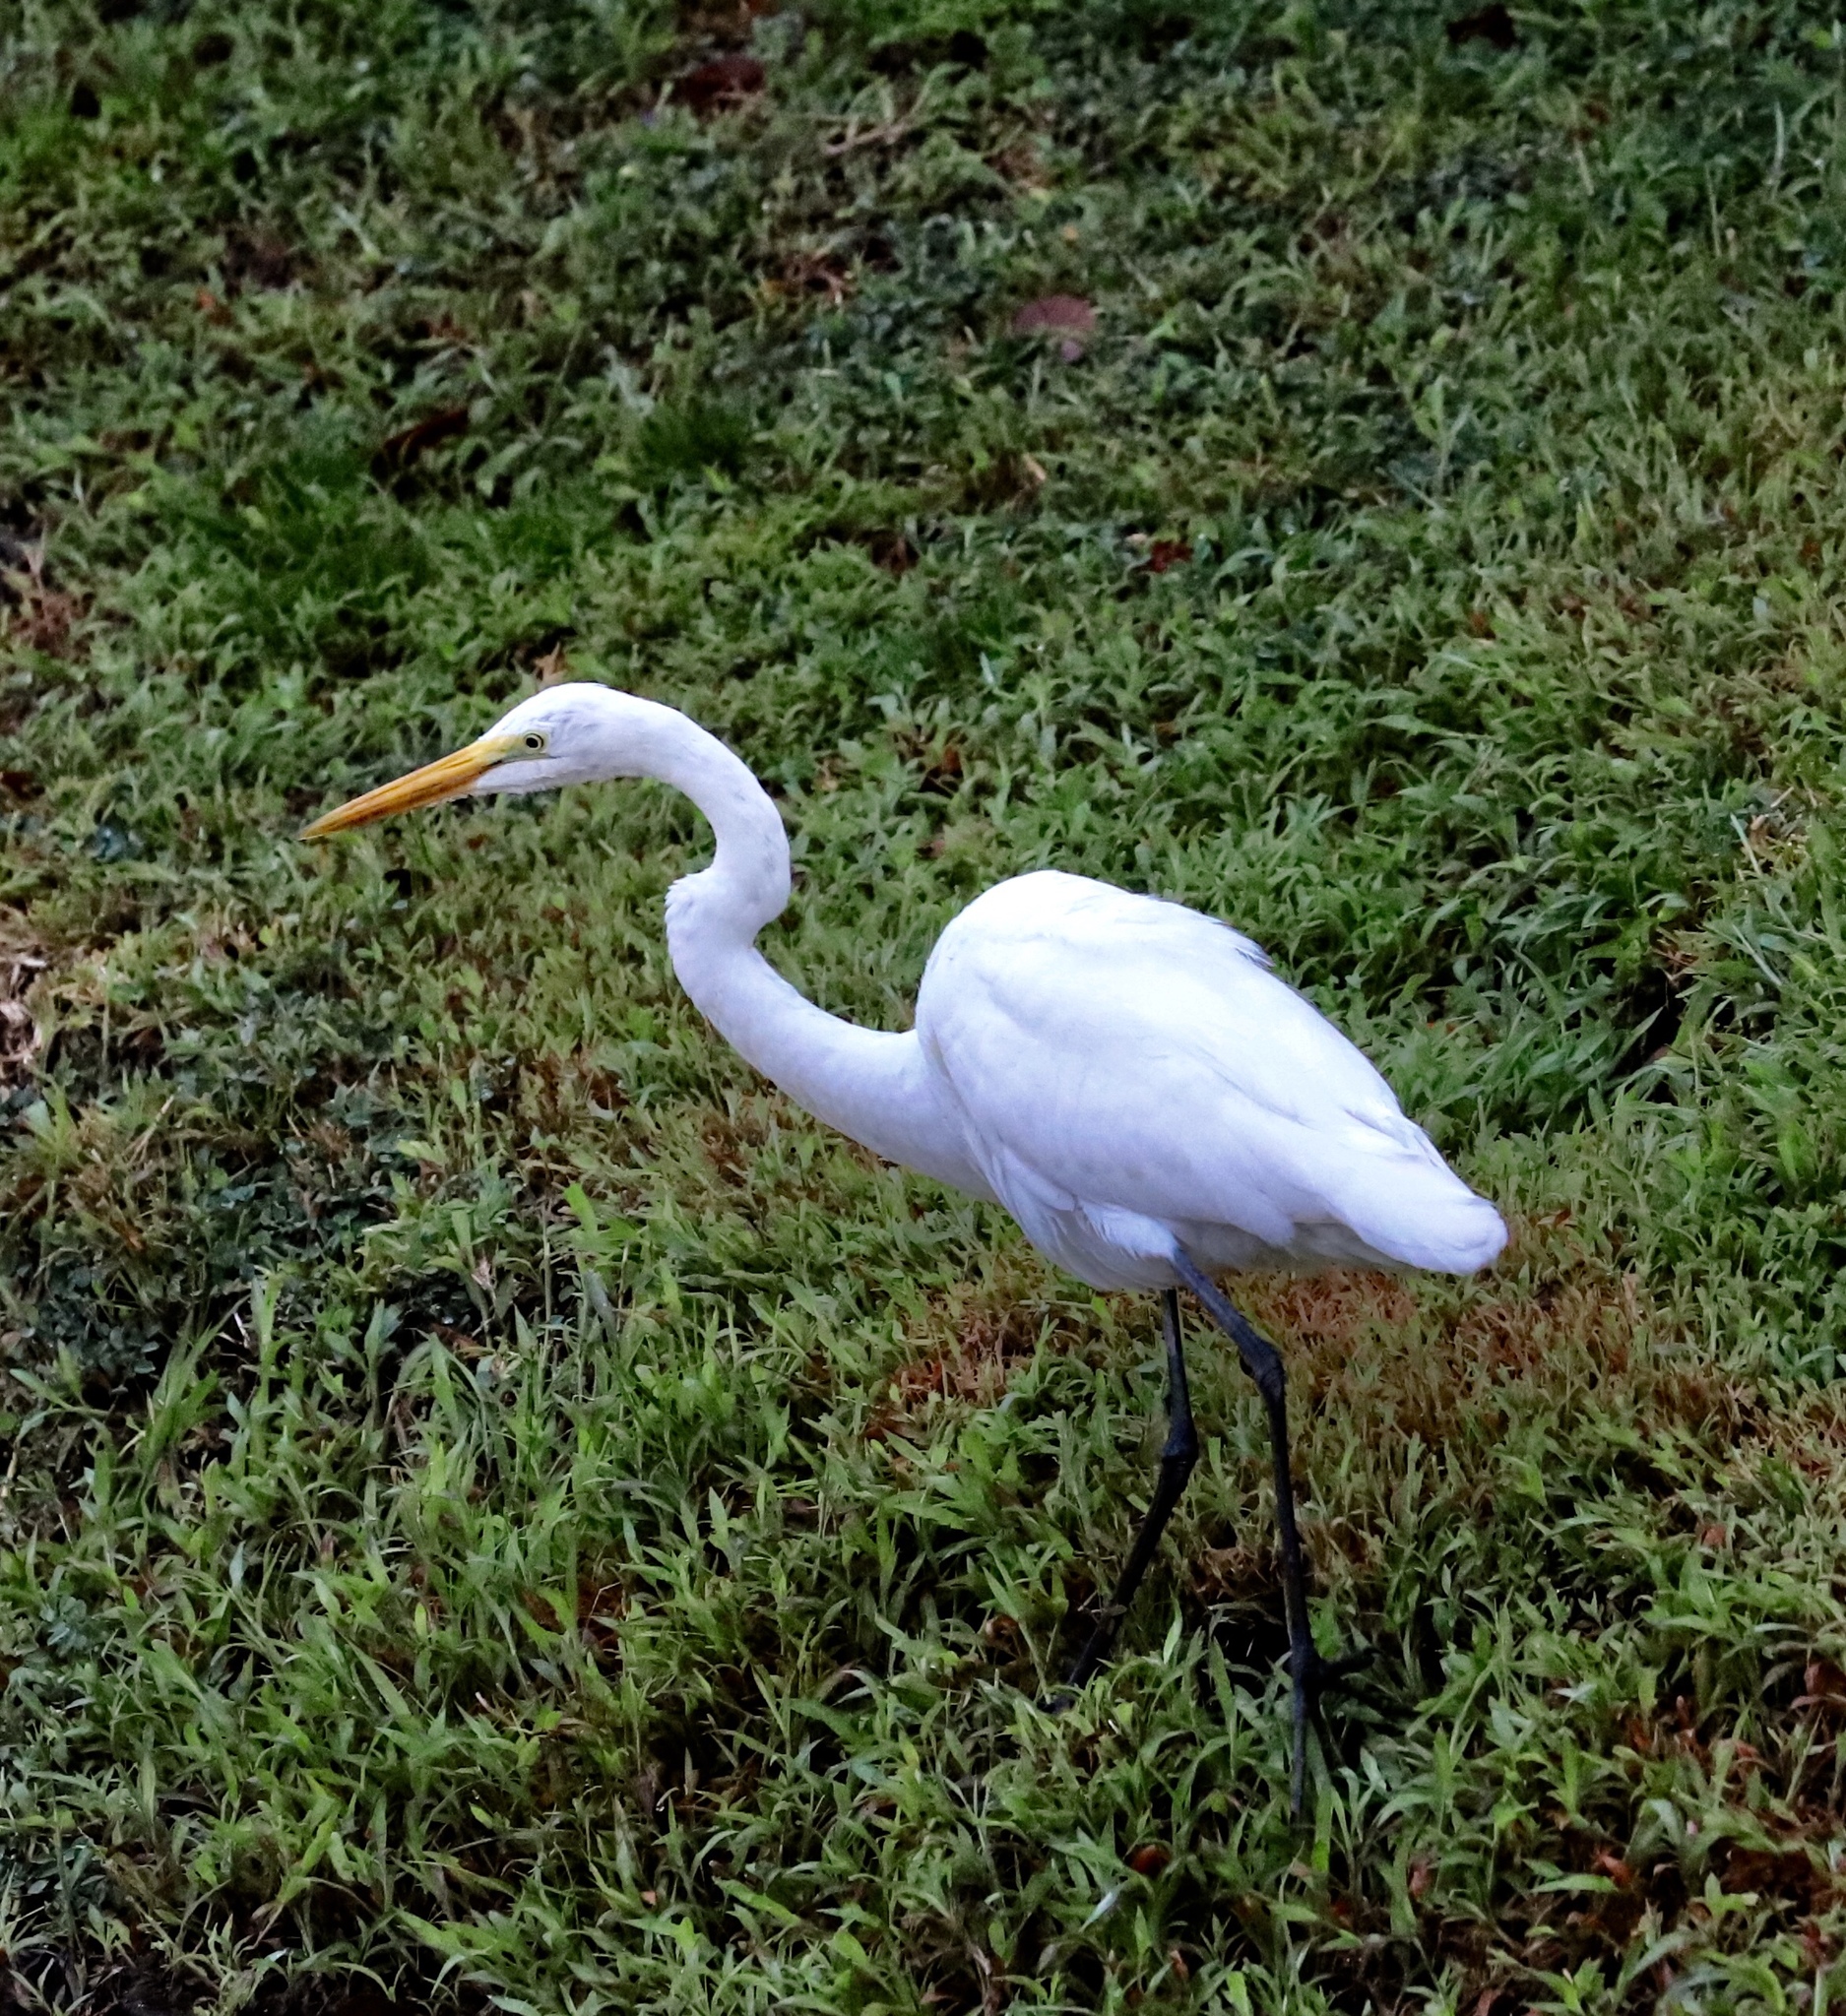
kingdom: Animalia
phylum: Chordata
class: Aves
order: Pelecaniformes
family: Ardeidae
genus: Ardea
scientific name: Ardea alba
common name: Great egret
